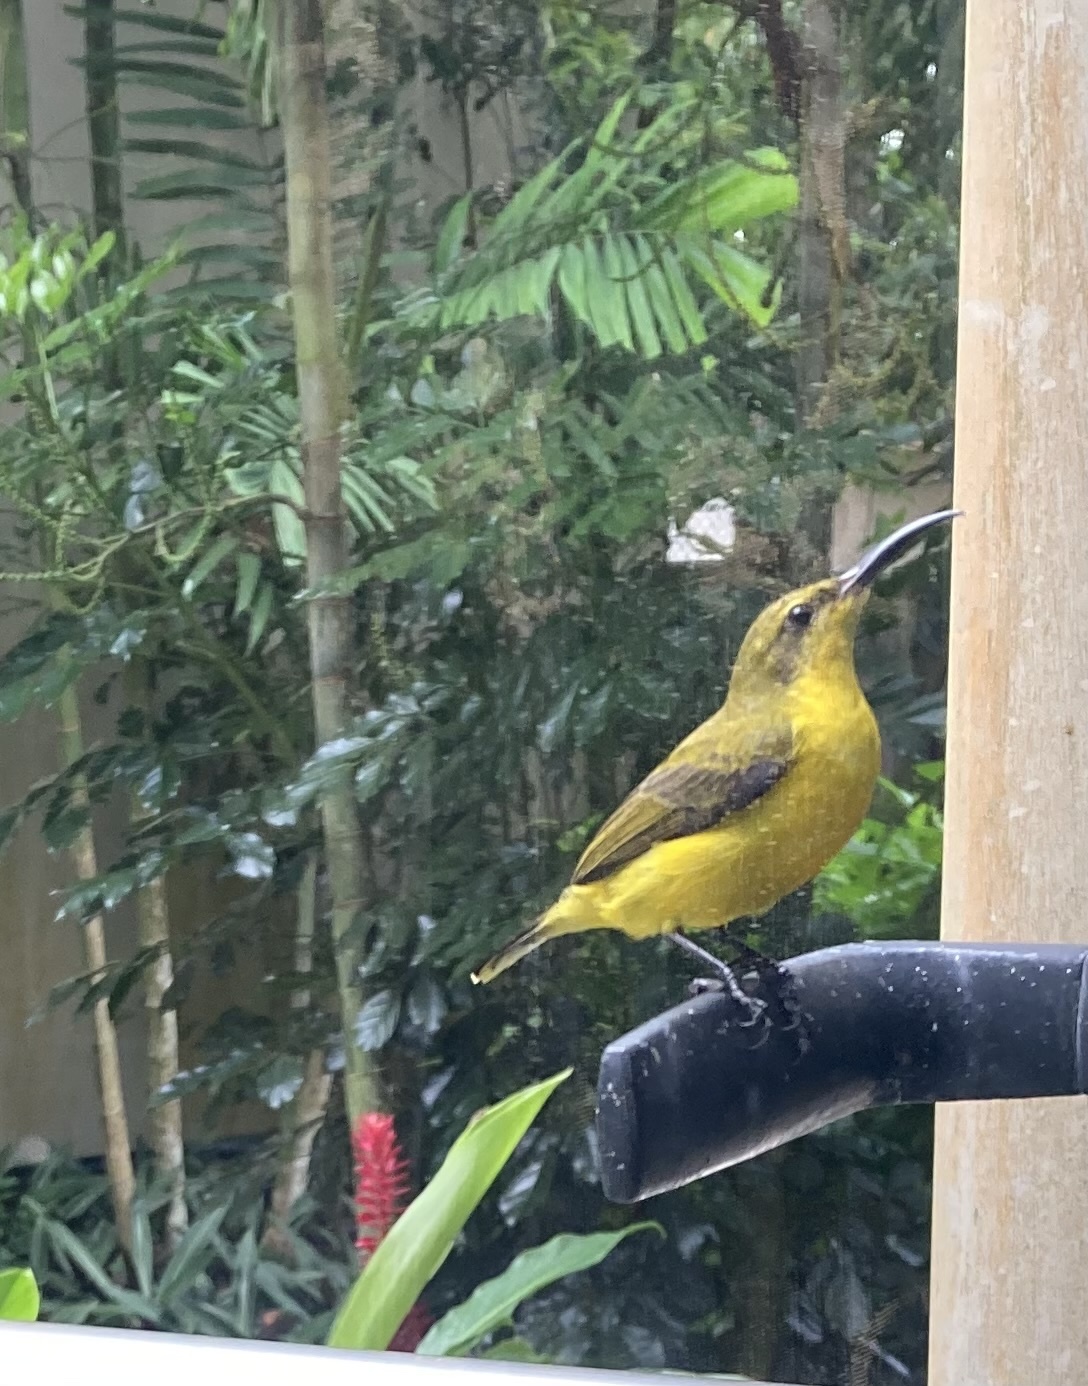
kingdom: Animalia
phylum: Chordata
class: Aves
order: Passeriformes
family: Nectariniidae
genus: Cinnyris
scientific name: Cinnyris
